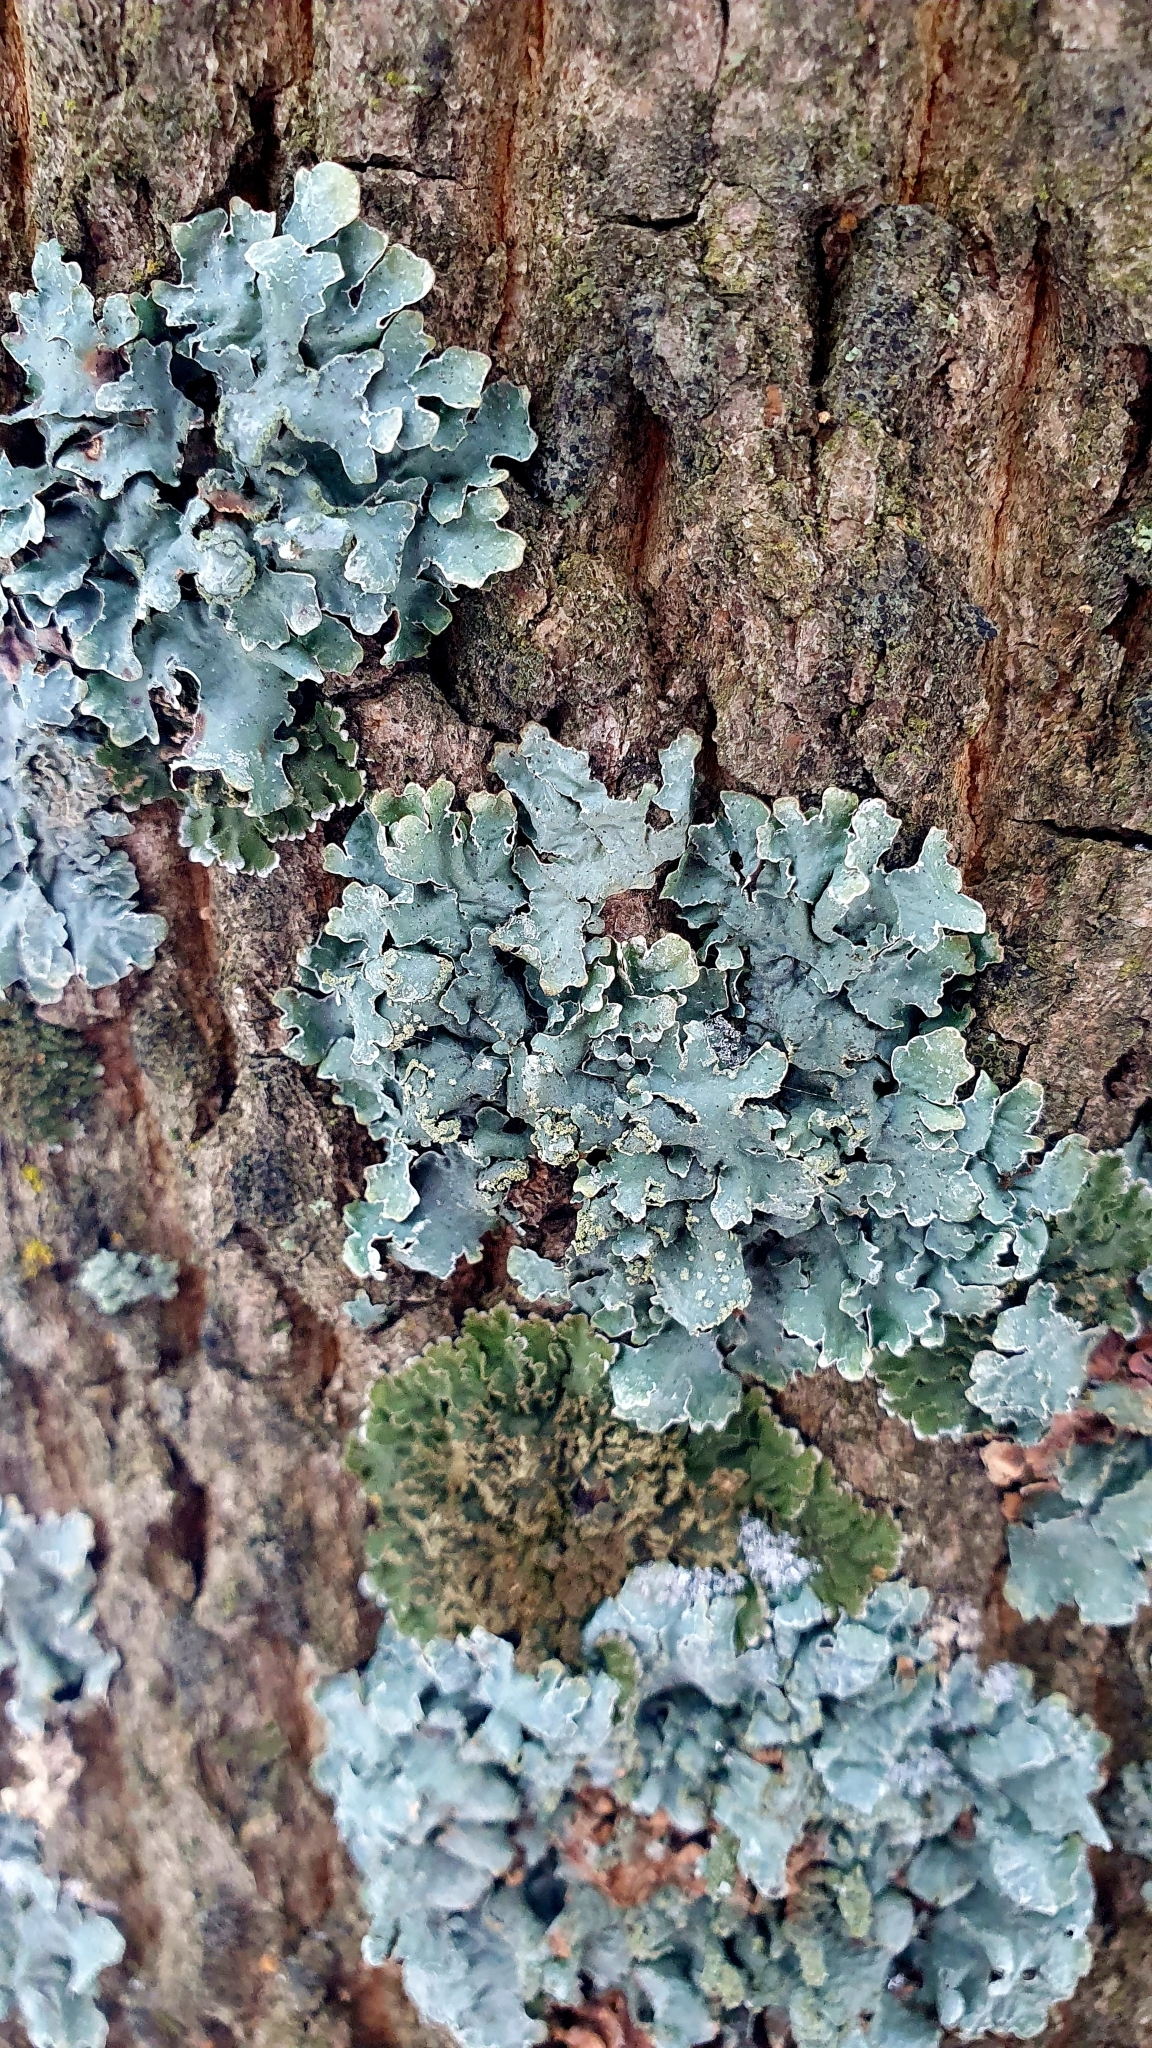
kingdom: Fungi
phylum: Ascomycota
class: Lecanoromycetes
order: Lecanorales
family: Parmeliaceae
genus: Parmelia
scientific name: Parmelia sulcata
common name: Netted shield lichen
